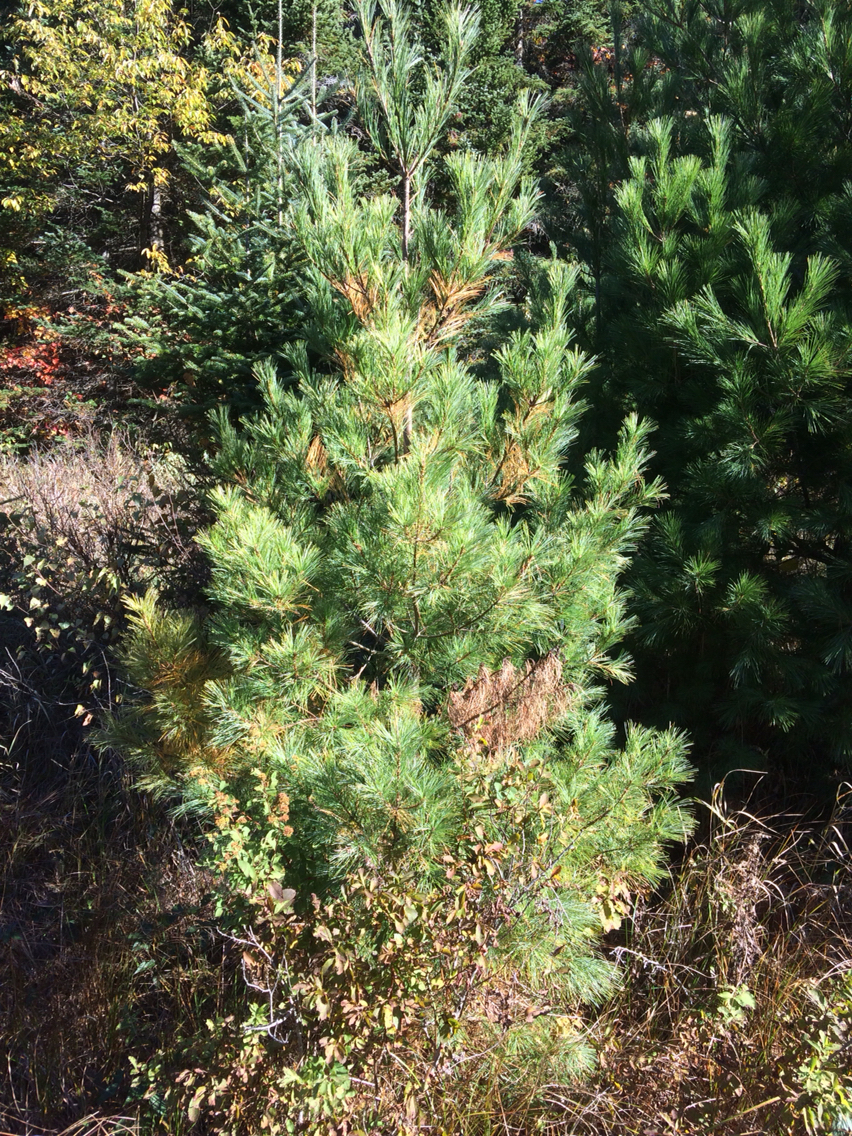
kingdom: Plantae
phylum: Tracheophyta
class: Pinopsida
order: Pinales
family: Pinaceae
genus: Pinus
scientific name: Pinus strobus
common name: Weymouth pine
